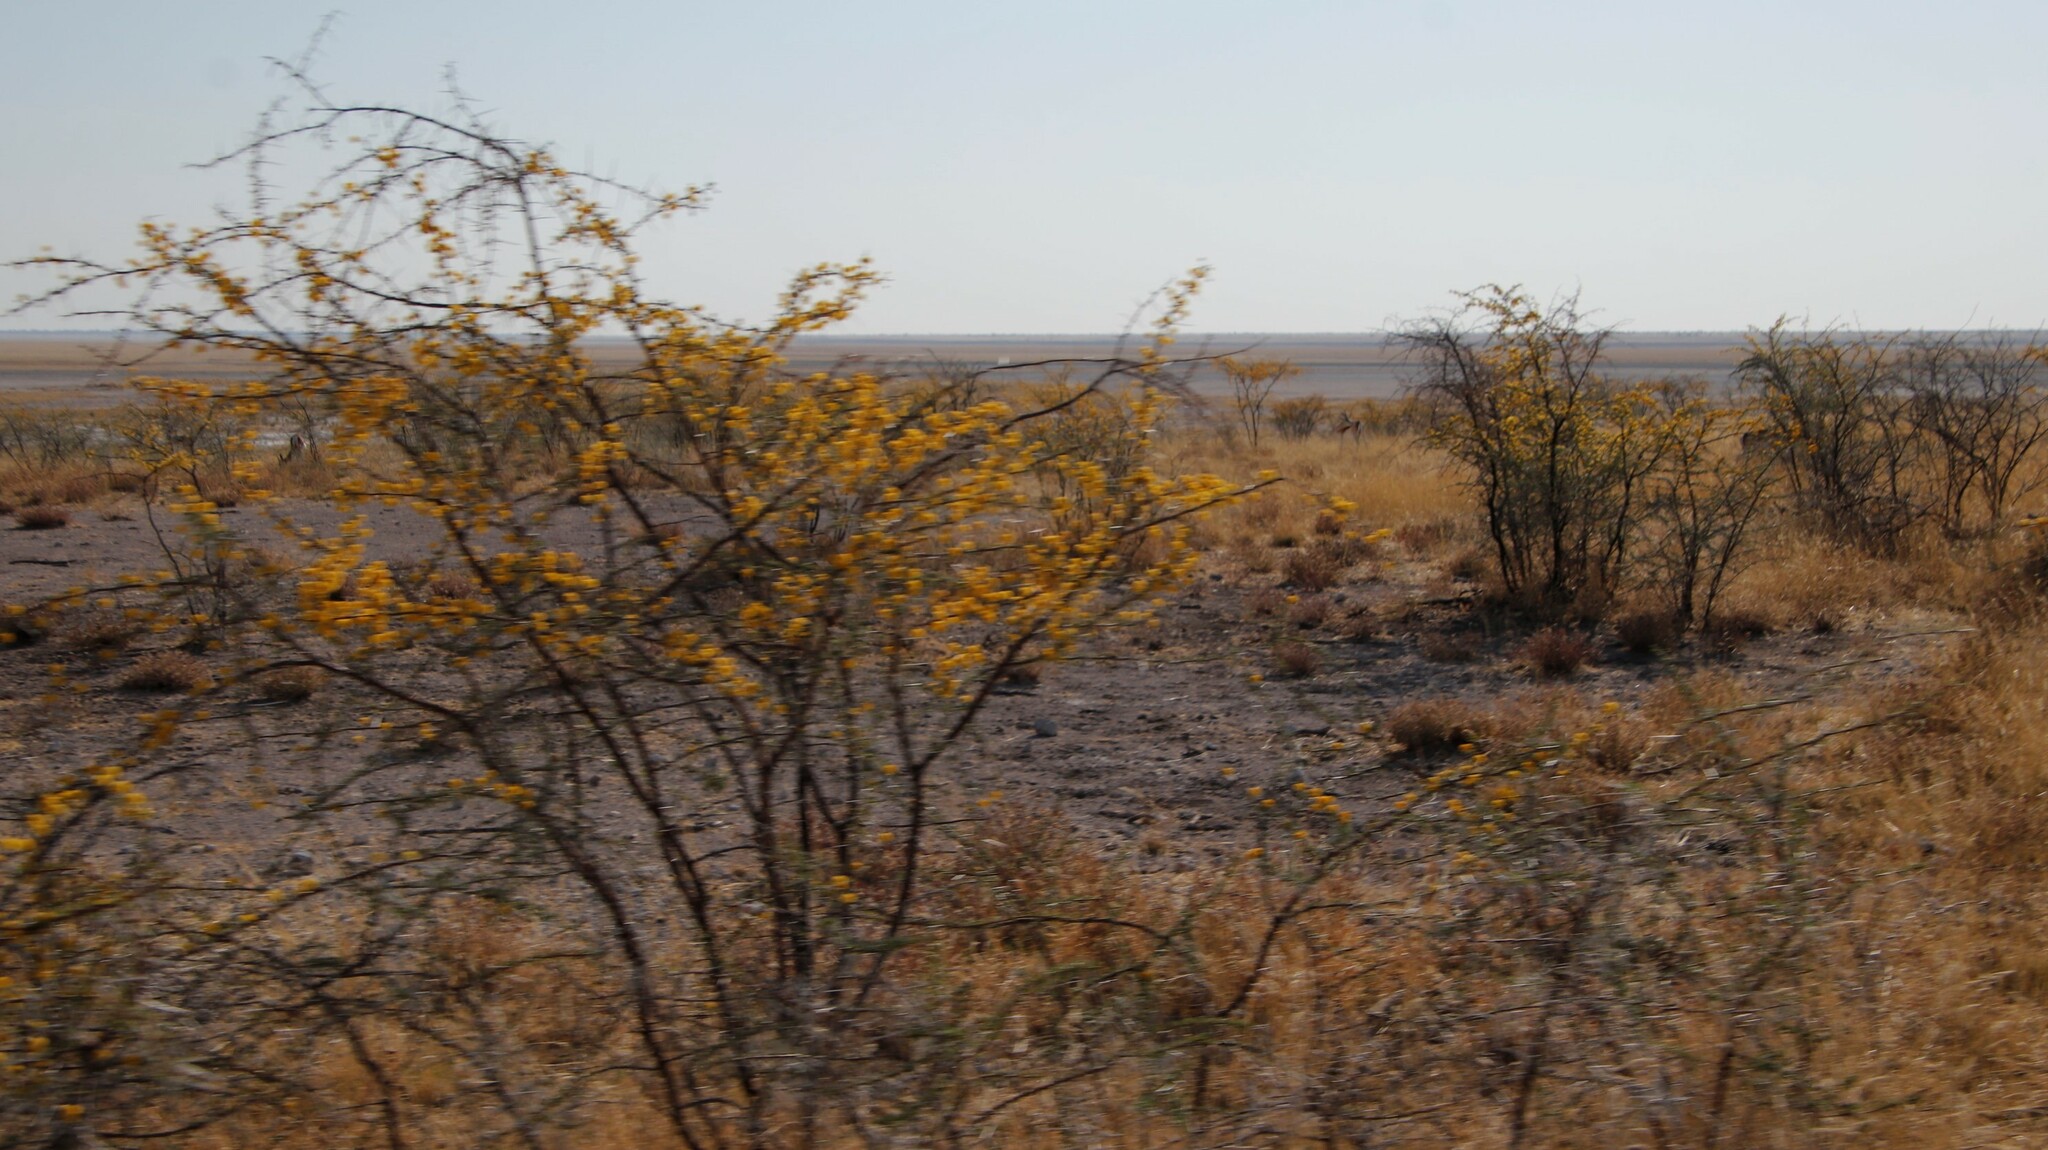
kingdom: Plantae
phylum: Tracheophyta
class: Magnoliopsida
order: Fabales
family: Fabaceae
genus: Vachellia
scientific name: Vachellia nebrownii
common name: Water acacia
